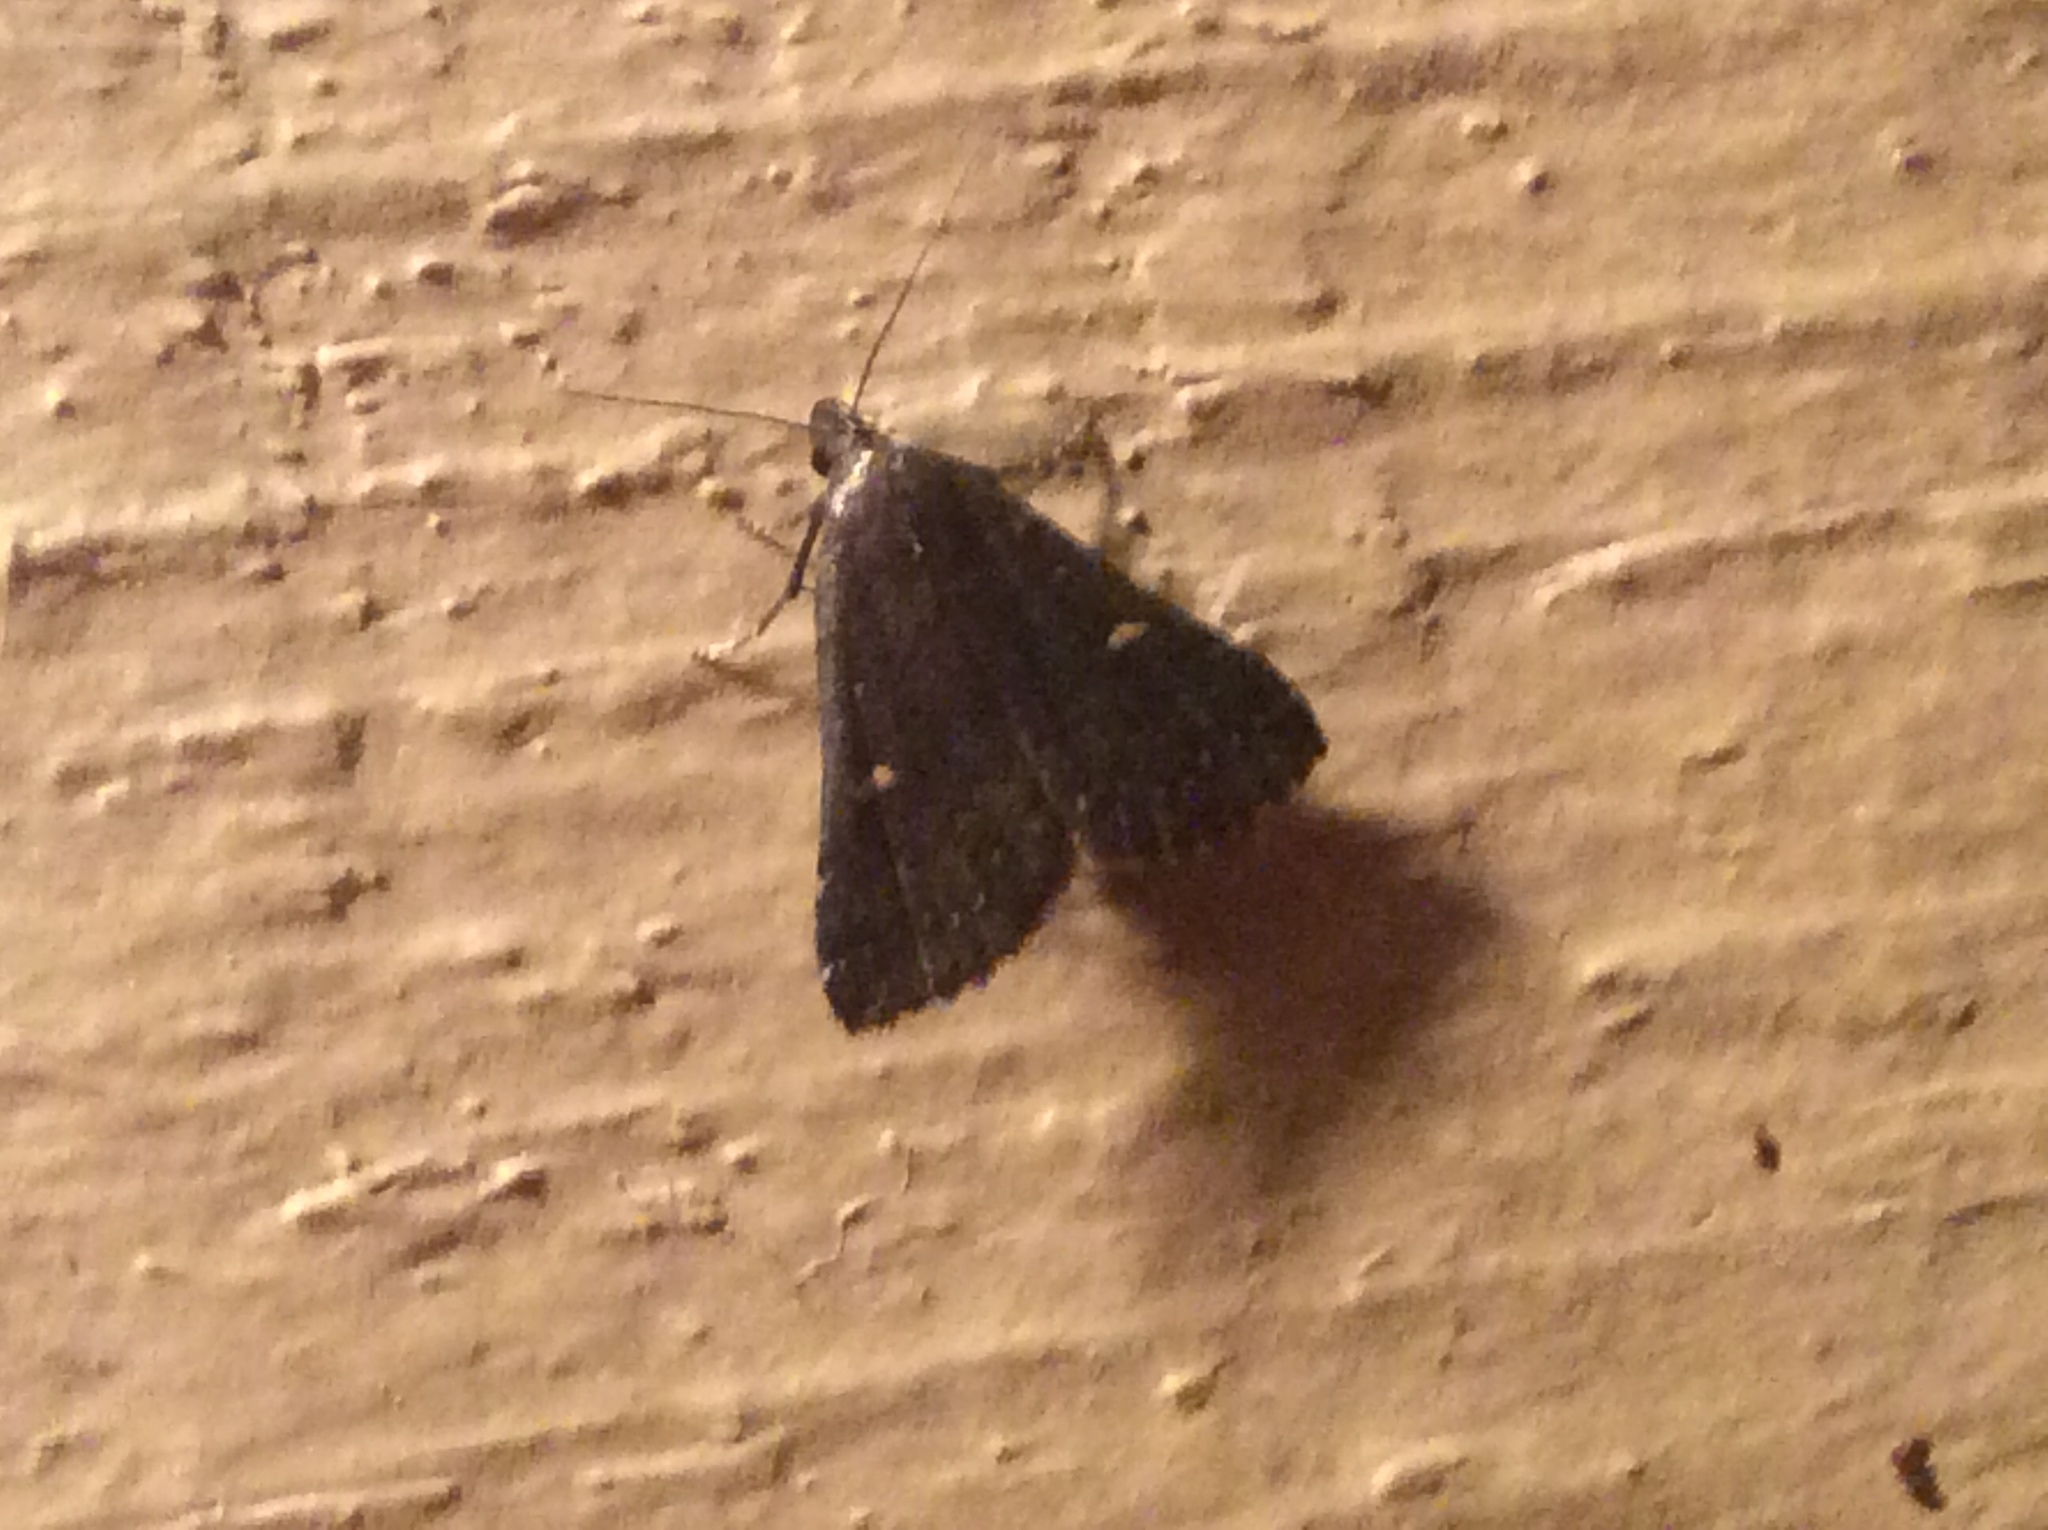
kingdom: Animalia
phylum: Arthropoda
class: Insecta
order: Lepidoptera
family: Erebidae
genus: Tetanolita
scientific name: Tetanolita mynesalis
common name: Smoky tetanolita moth
